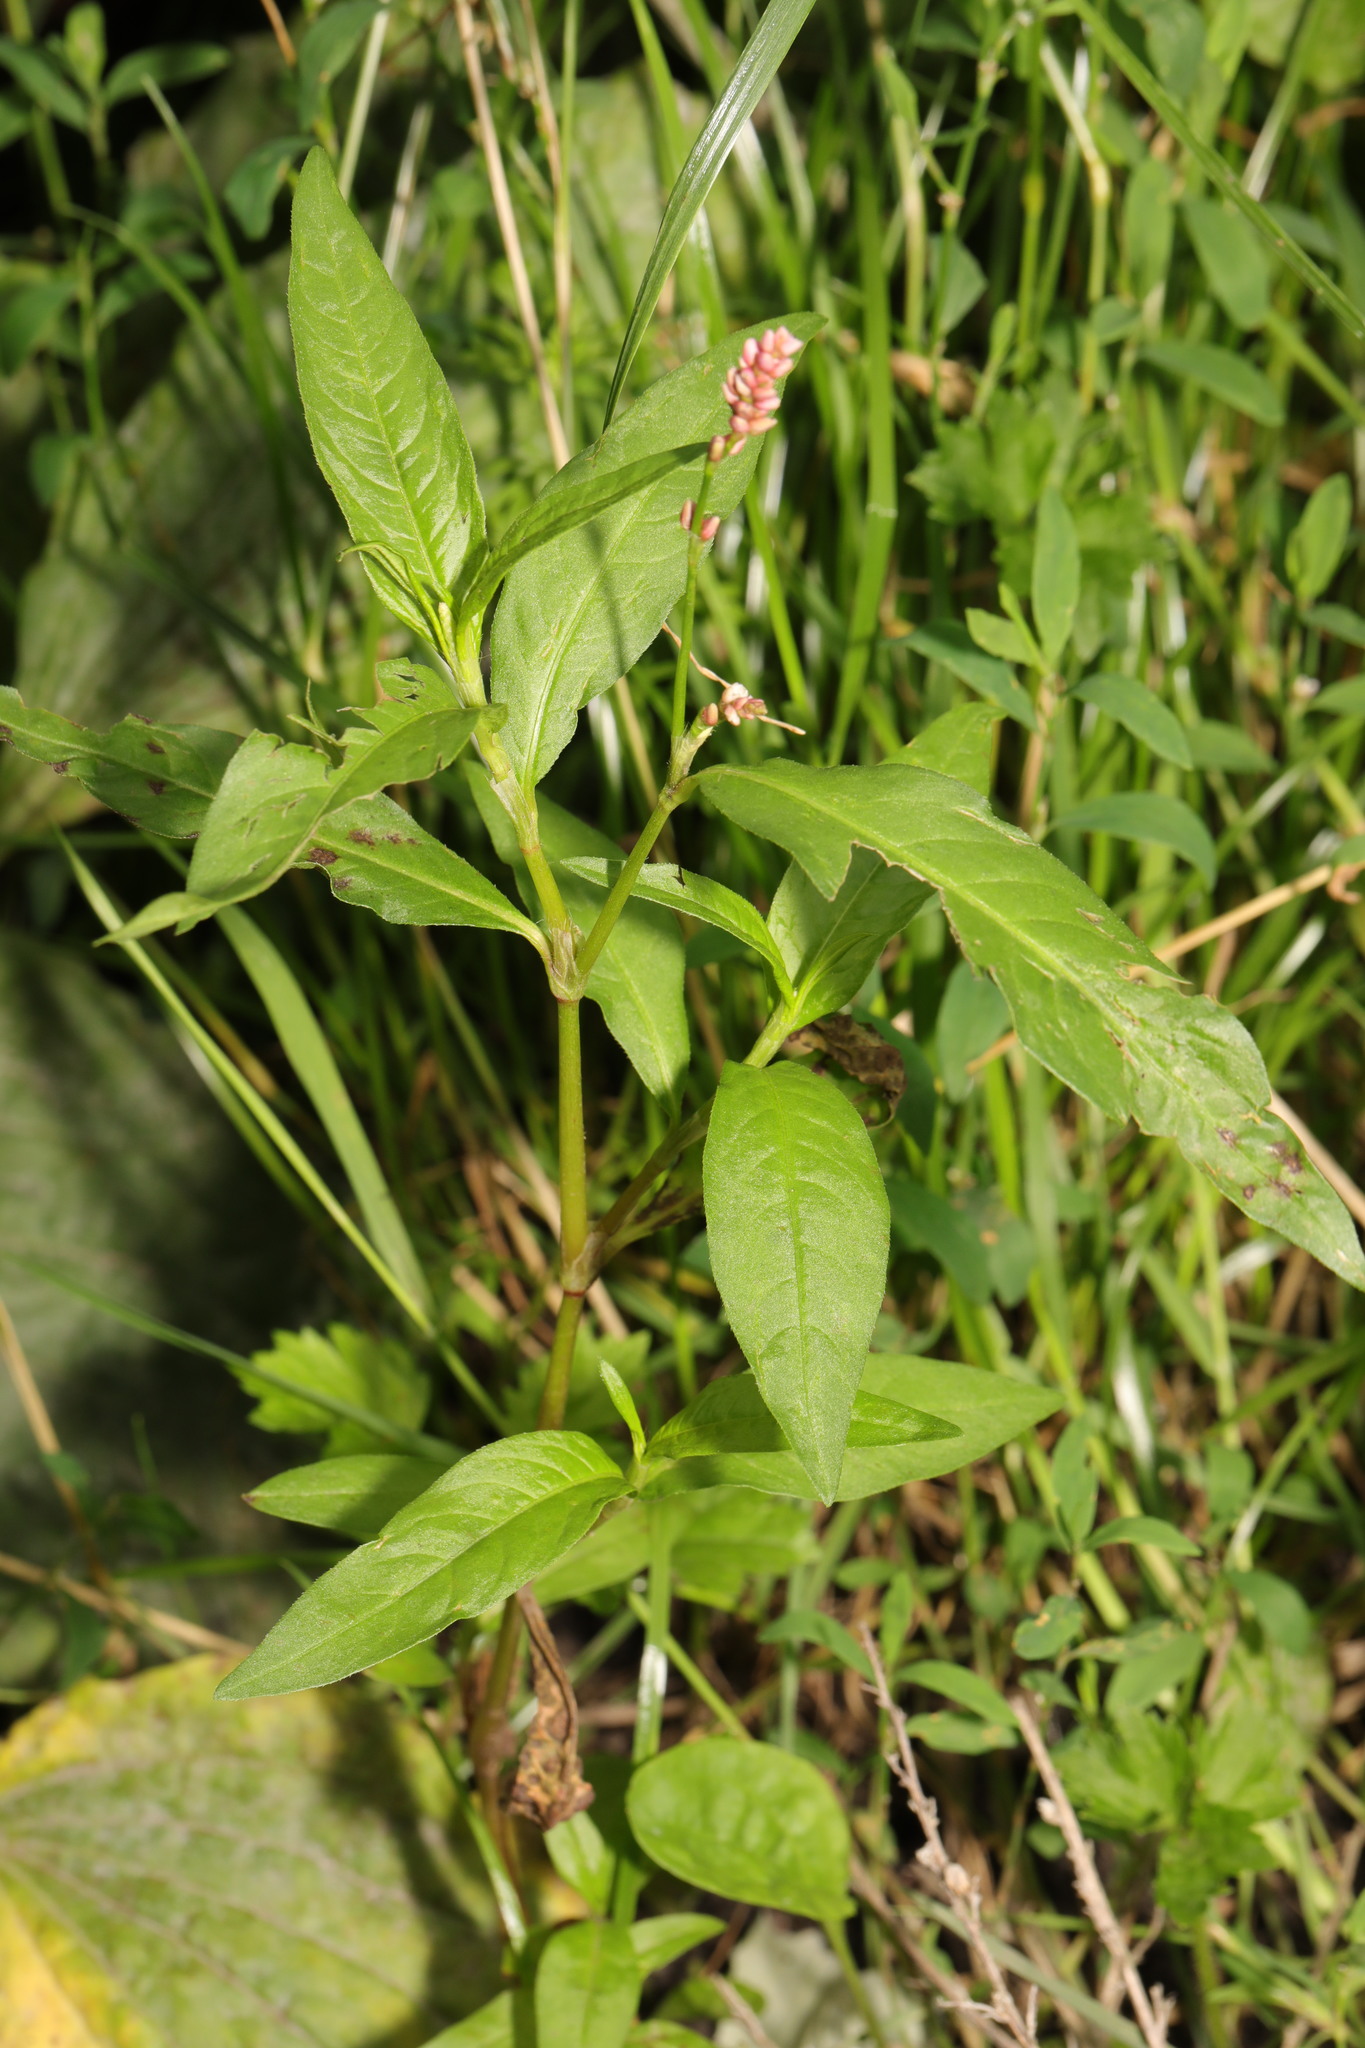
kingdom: Plantae
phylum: Tracheophyta
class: Magnoliopsida
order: Caryophyllales
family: Polygonaceae
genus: Persicaria
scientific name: Persicaria maculosa
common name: Redshank
